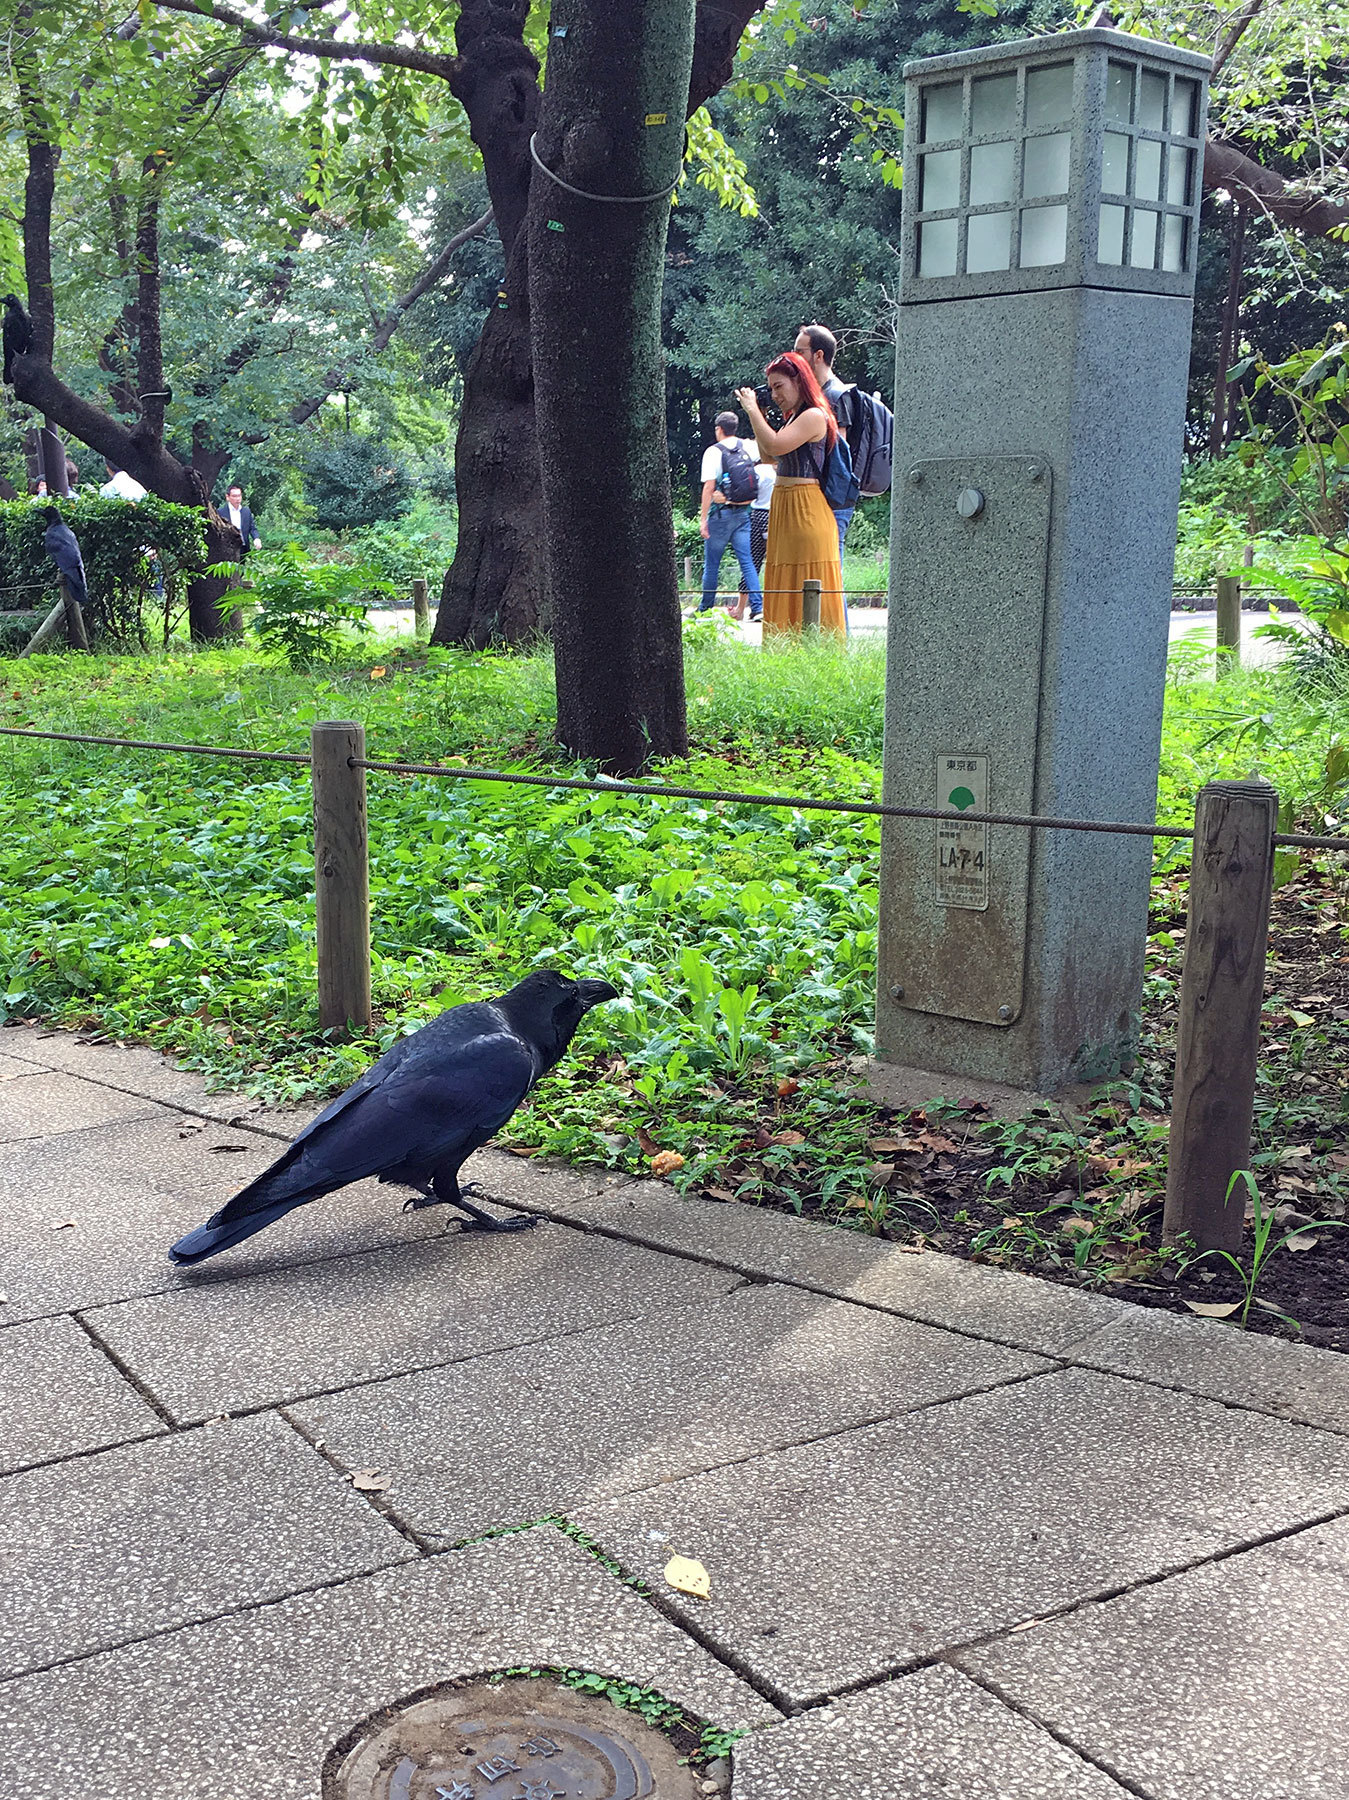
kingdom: Animalia
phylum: Chordata
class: Aves
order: Passeriformes
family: Corvidae
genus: Corvus
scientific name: Corvus macrorhynchos
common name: Large-billed crow
